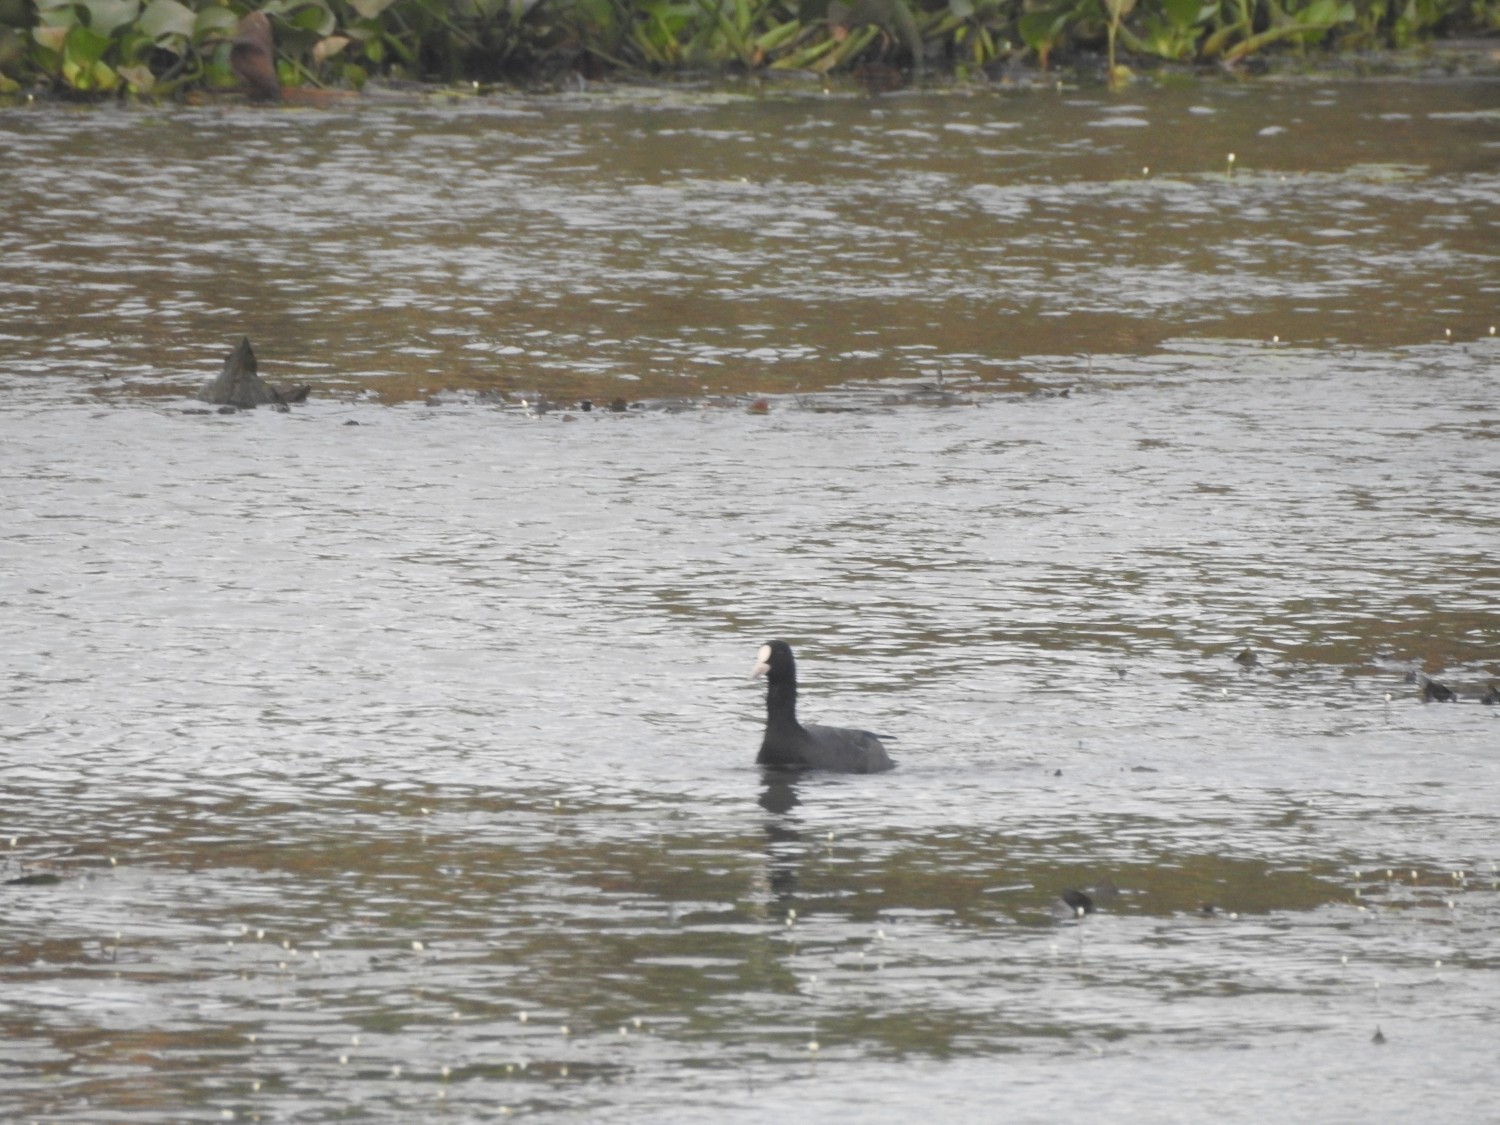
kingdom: Animalia
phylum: Chordata
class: Aves
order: Gruiformes
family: Rallidae
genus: Fulica
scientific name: Fulica atra
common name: Eurasian coot
